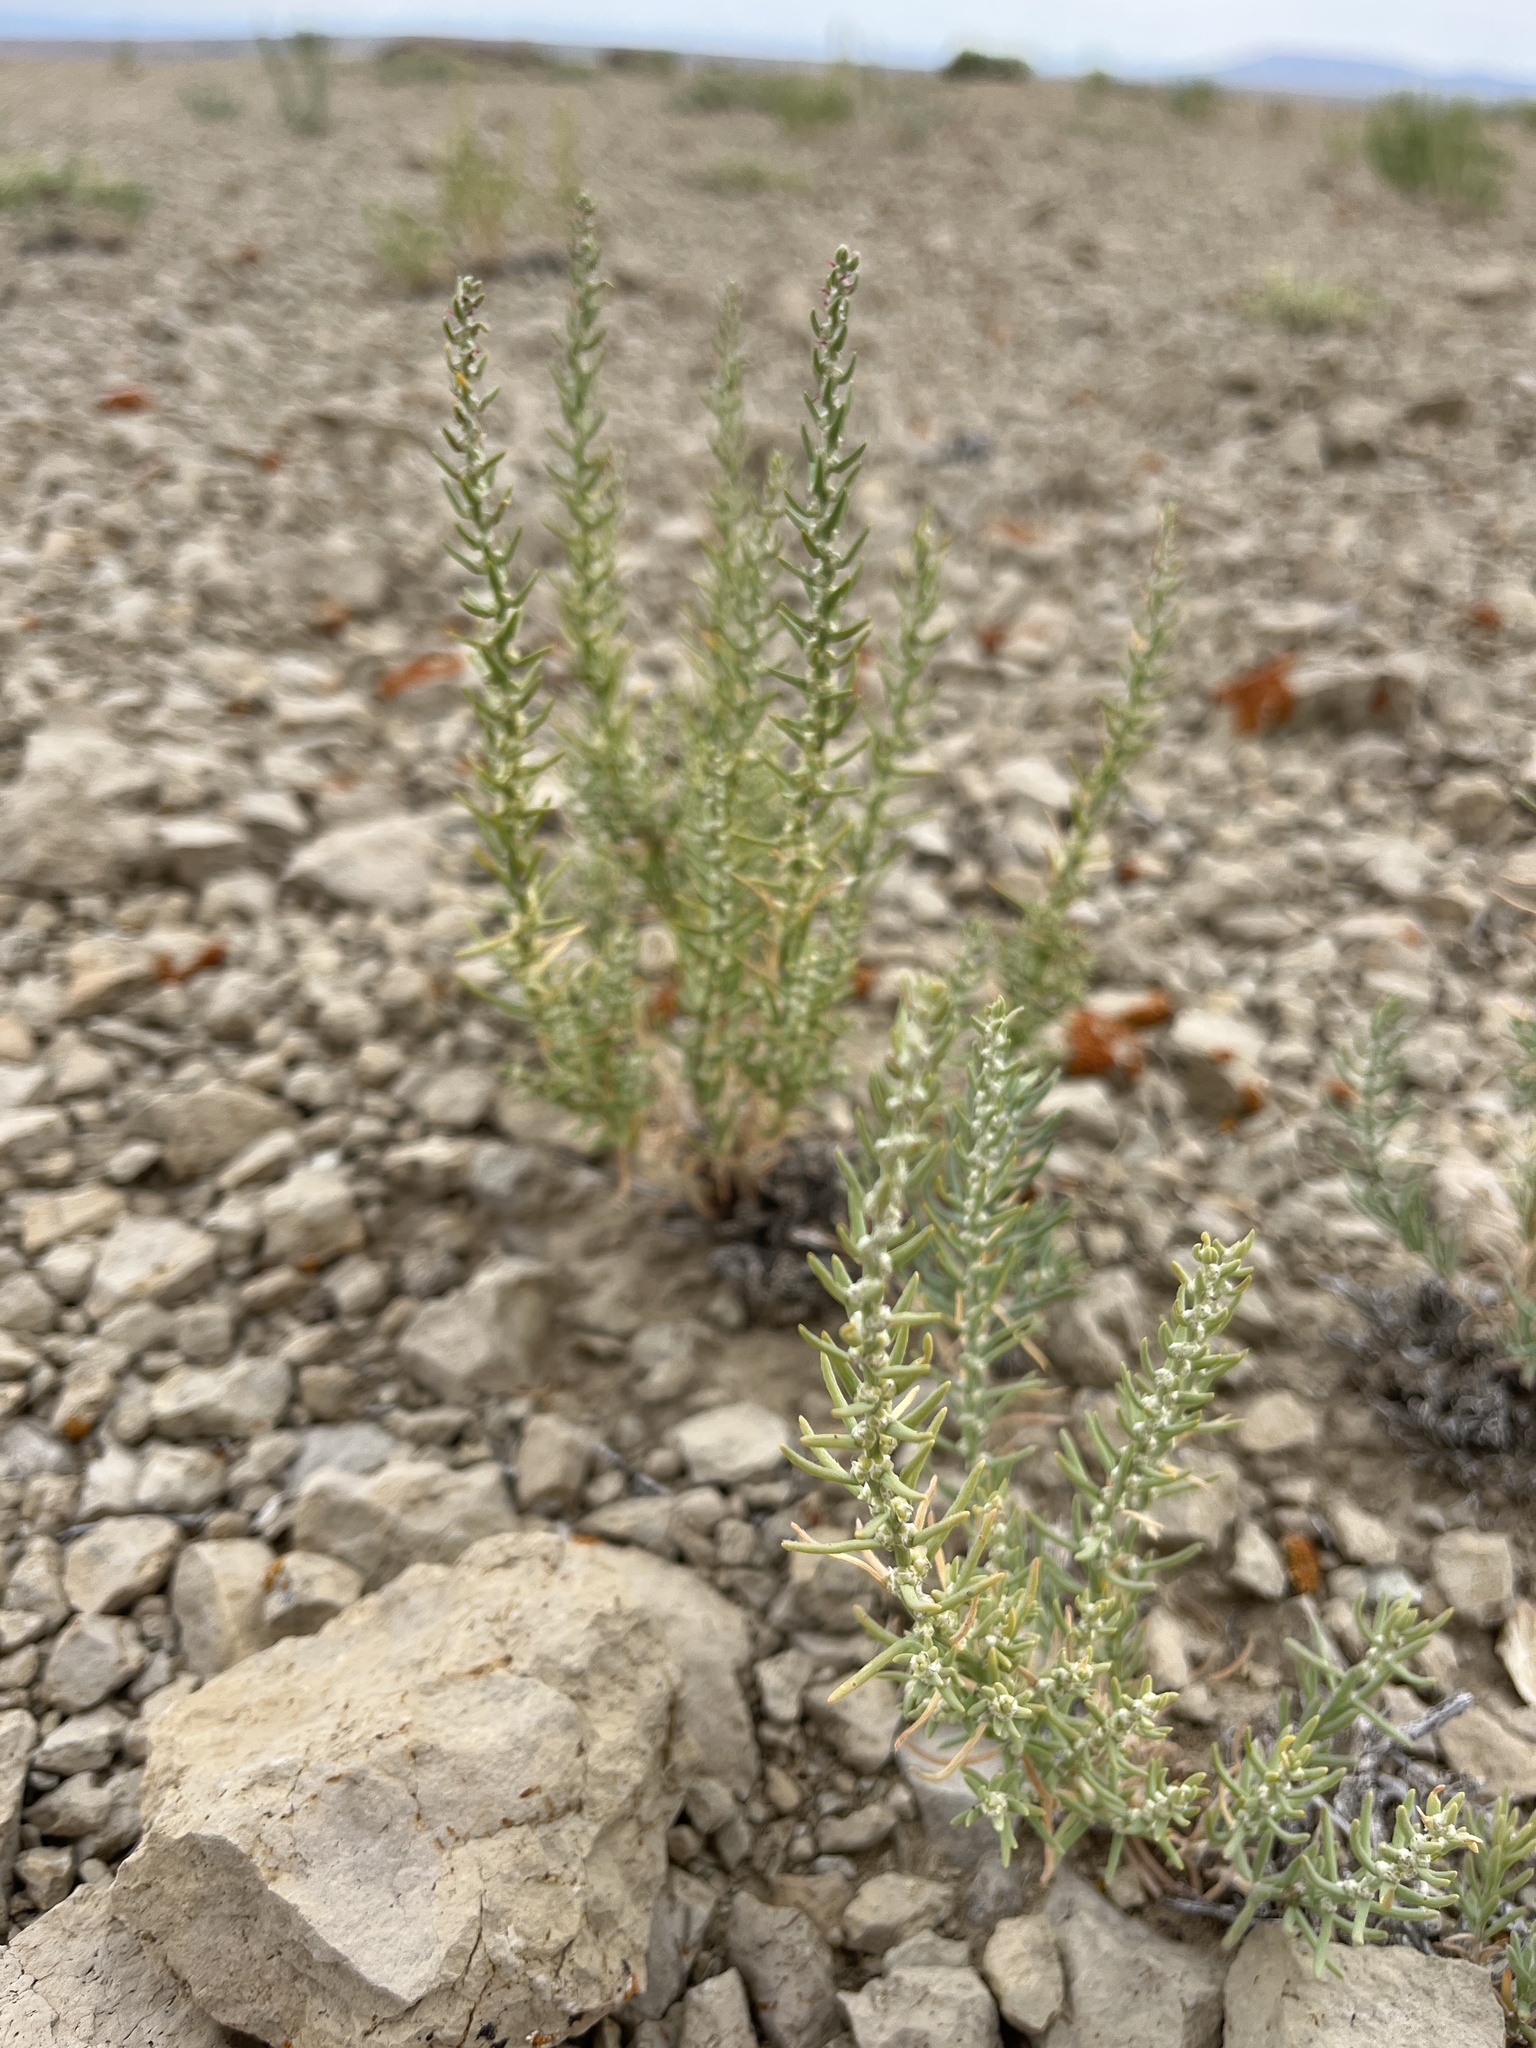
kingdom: Plantae
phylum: Tracheophyta
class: Magnoliopsida
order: Caryophyllales
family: Amaranthaceae
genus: Neokochia
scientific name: Neokochia americana
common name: Perennial summer-cypress
